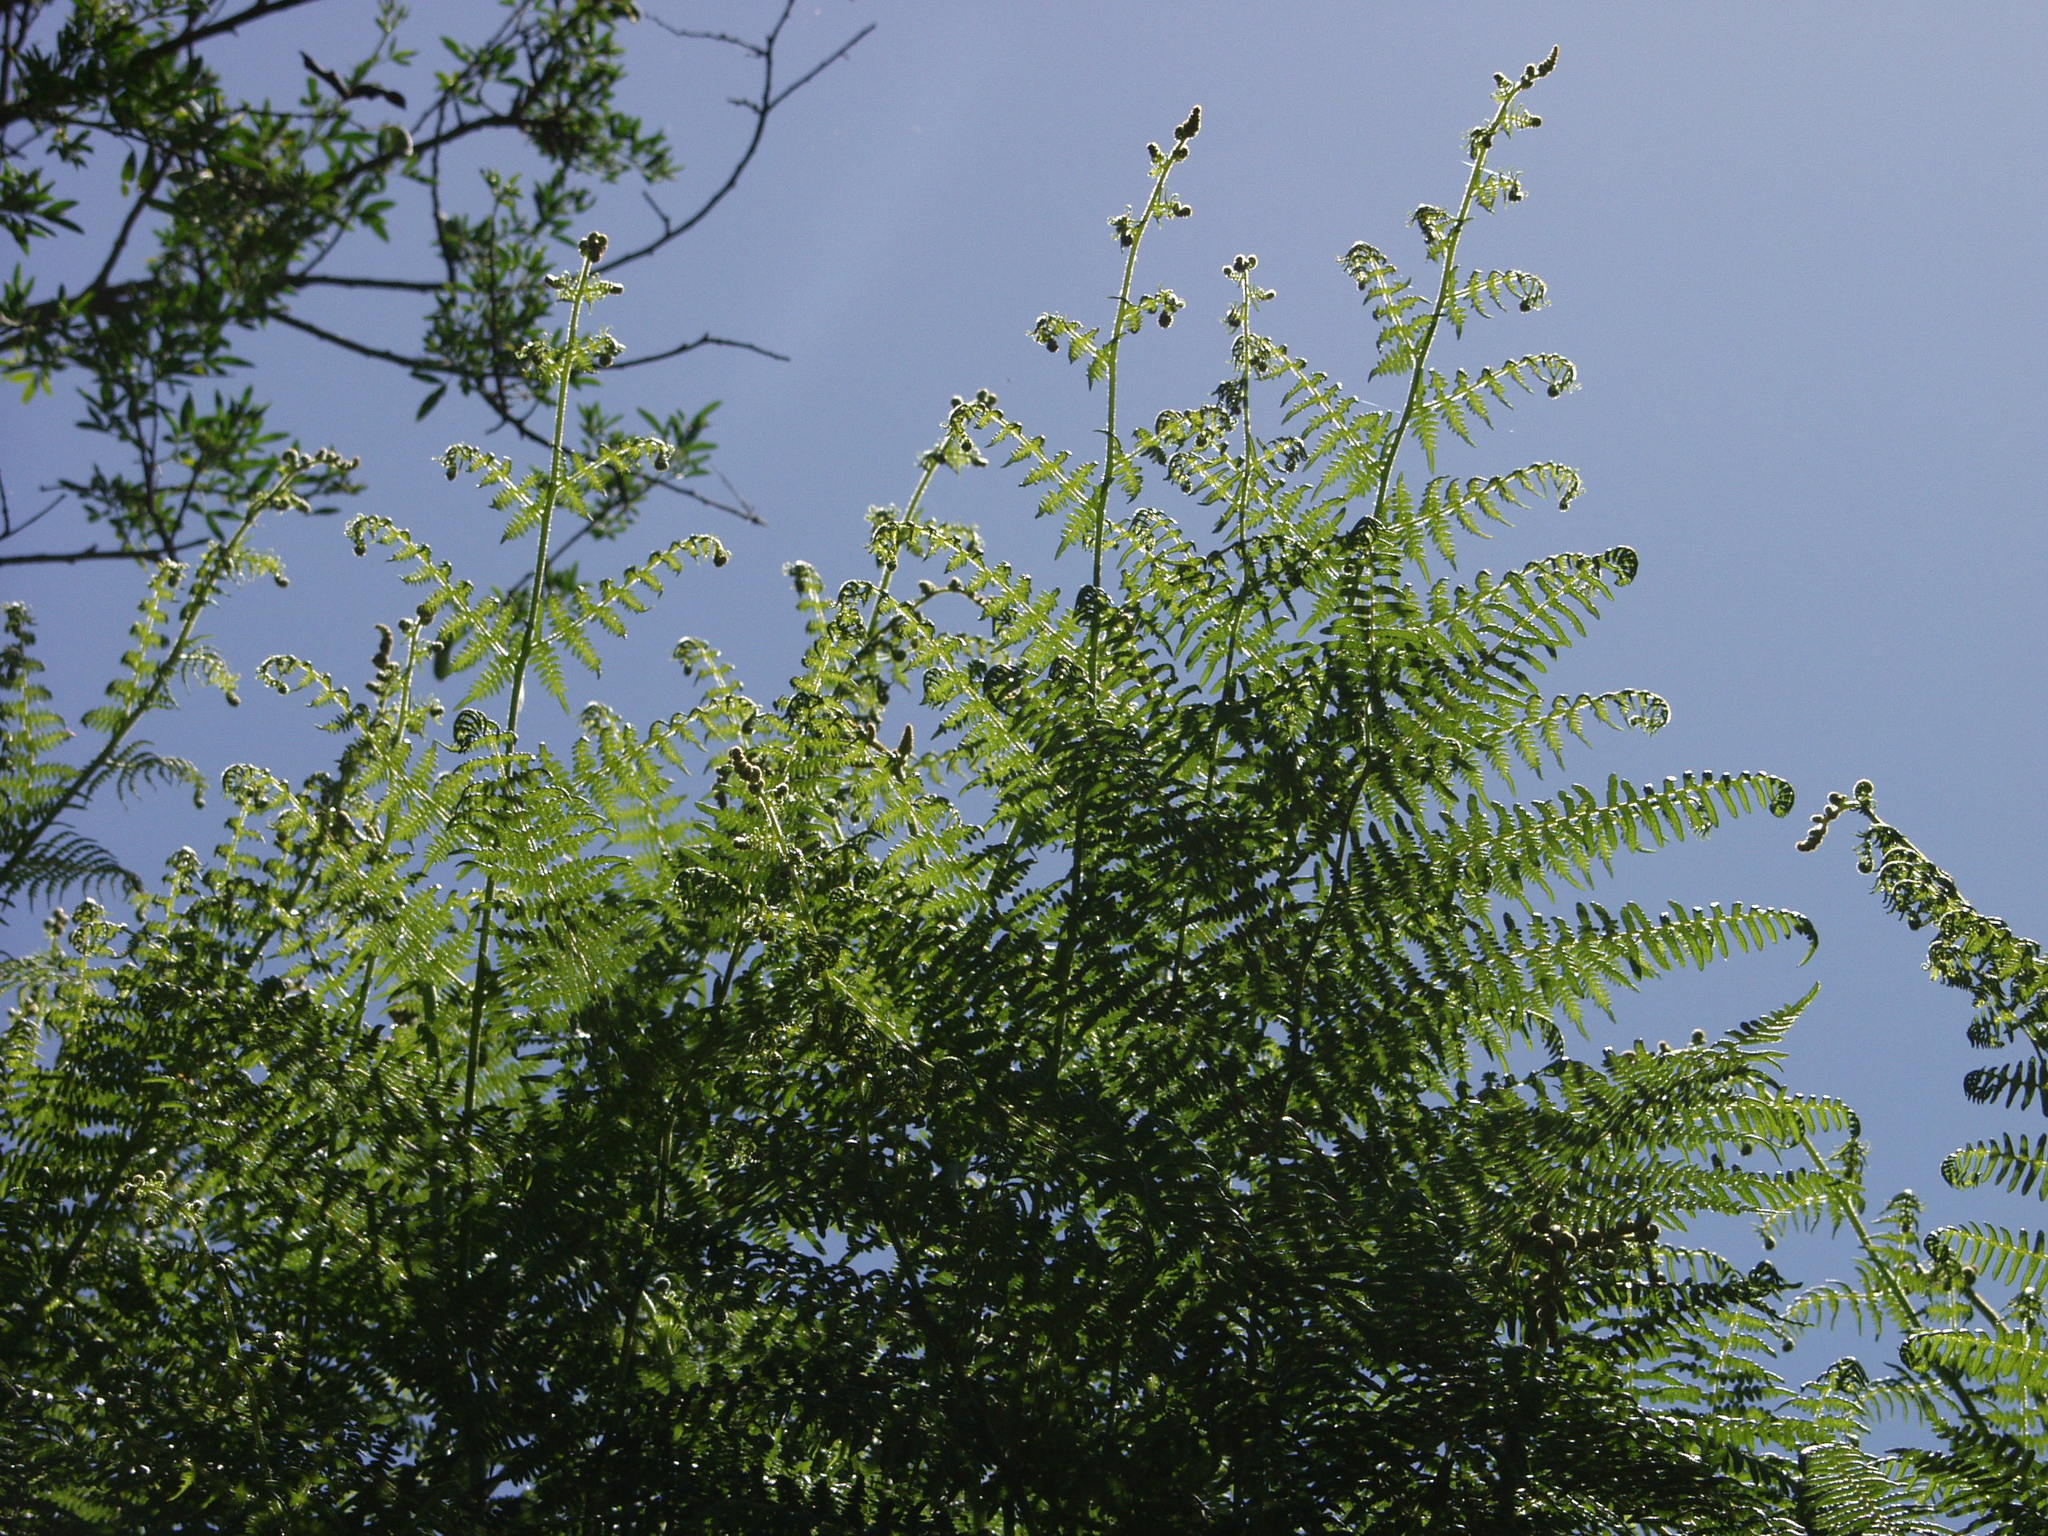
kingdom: Plantae
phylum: Tracheophyta
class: Polypodiopsida
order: Polypodiales
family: Dennstaedtiaceae
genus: Pteridium
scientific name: Pteridium aquilinum
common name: Bracken
